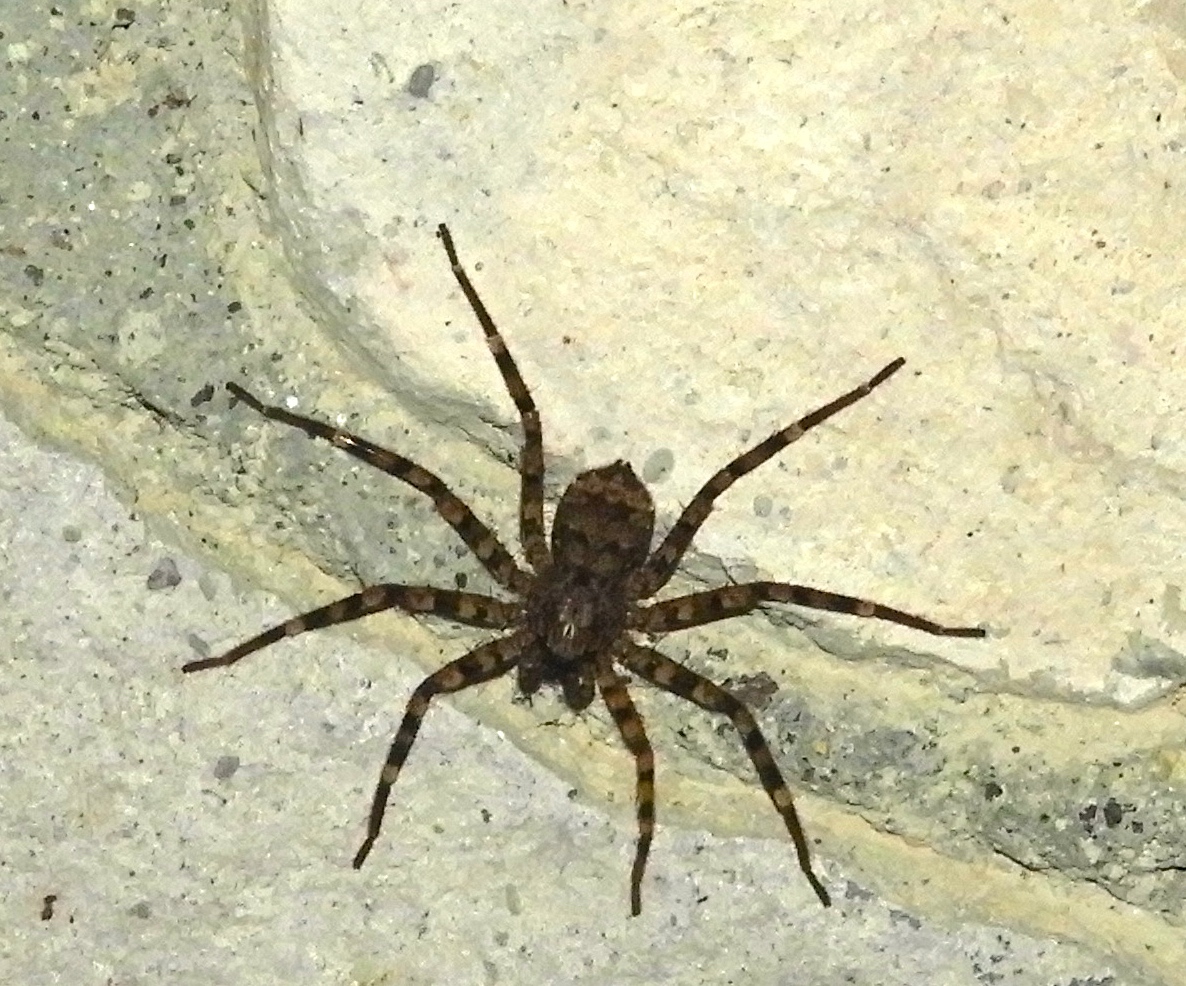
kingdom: Animalia
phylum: Arthropoda
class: Arachnida
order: Araneae
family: Selenopidae
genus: Selenops
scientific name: Selenops
